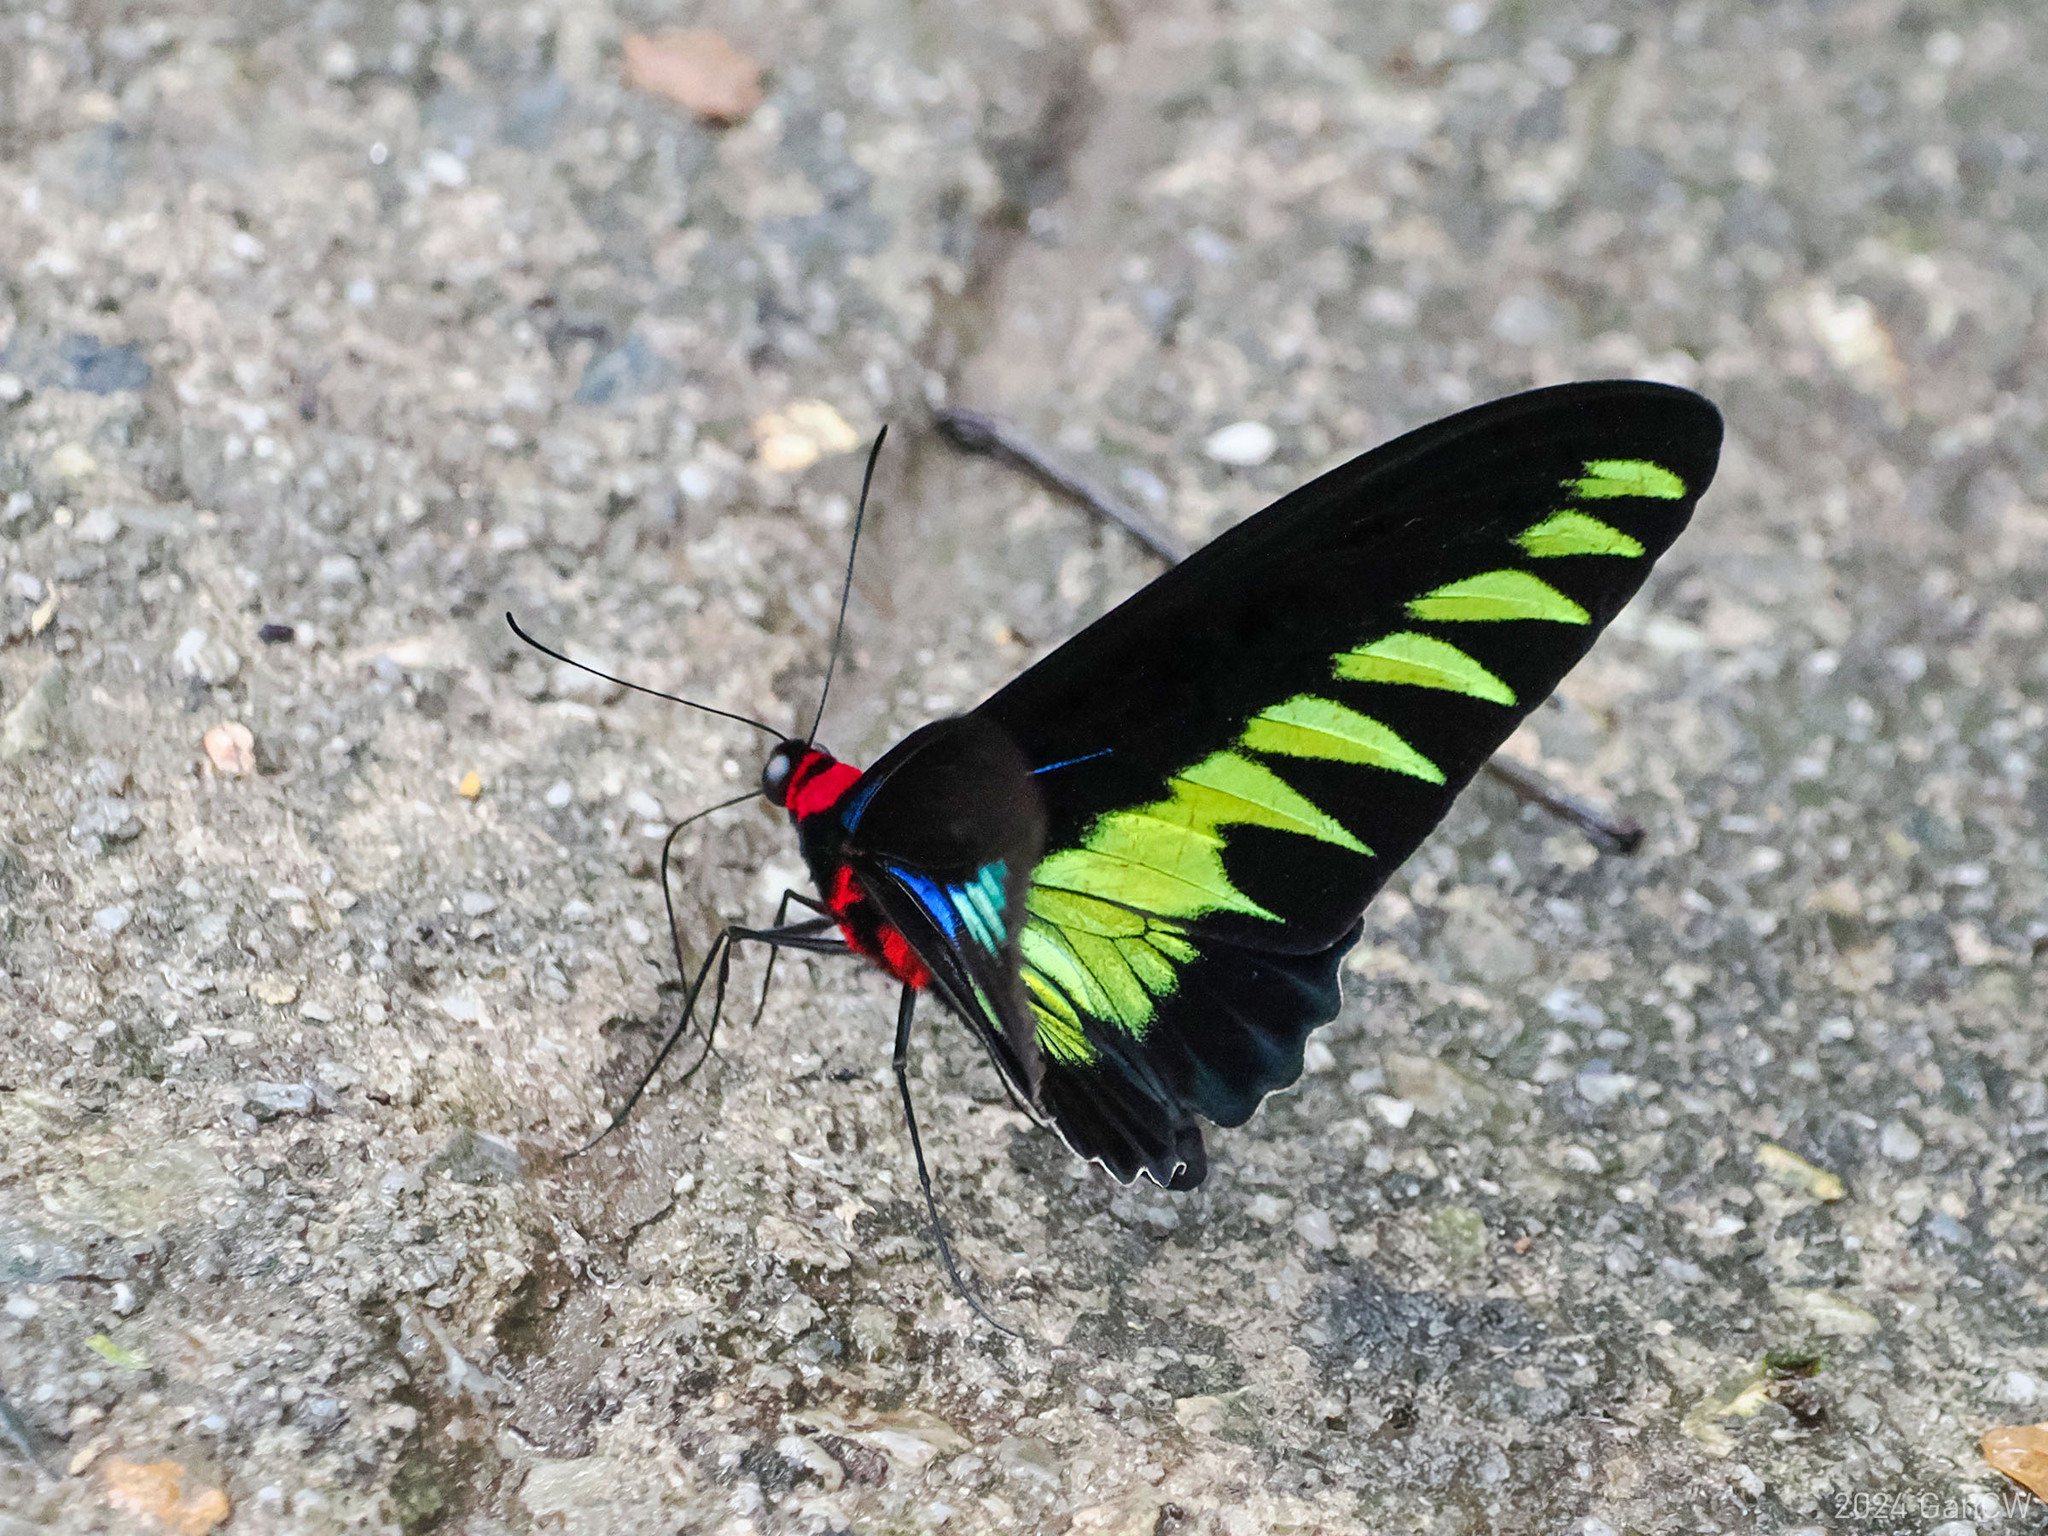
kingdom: Animalia
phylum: Arthropoda
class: Insecta
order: Lepidoptera
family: Papilionidae
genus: Trogonoptera
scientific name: Trogonoptera brookiana
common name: Raja brooke's birdwing
